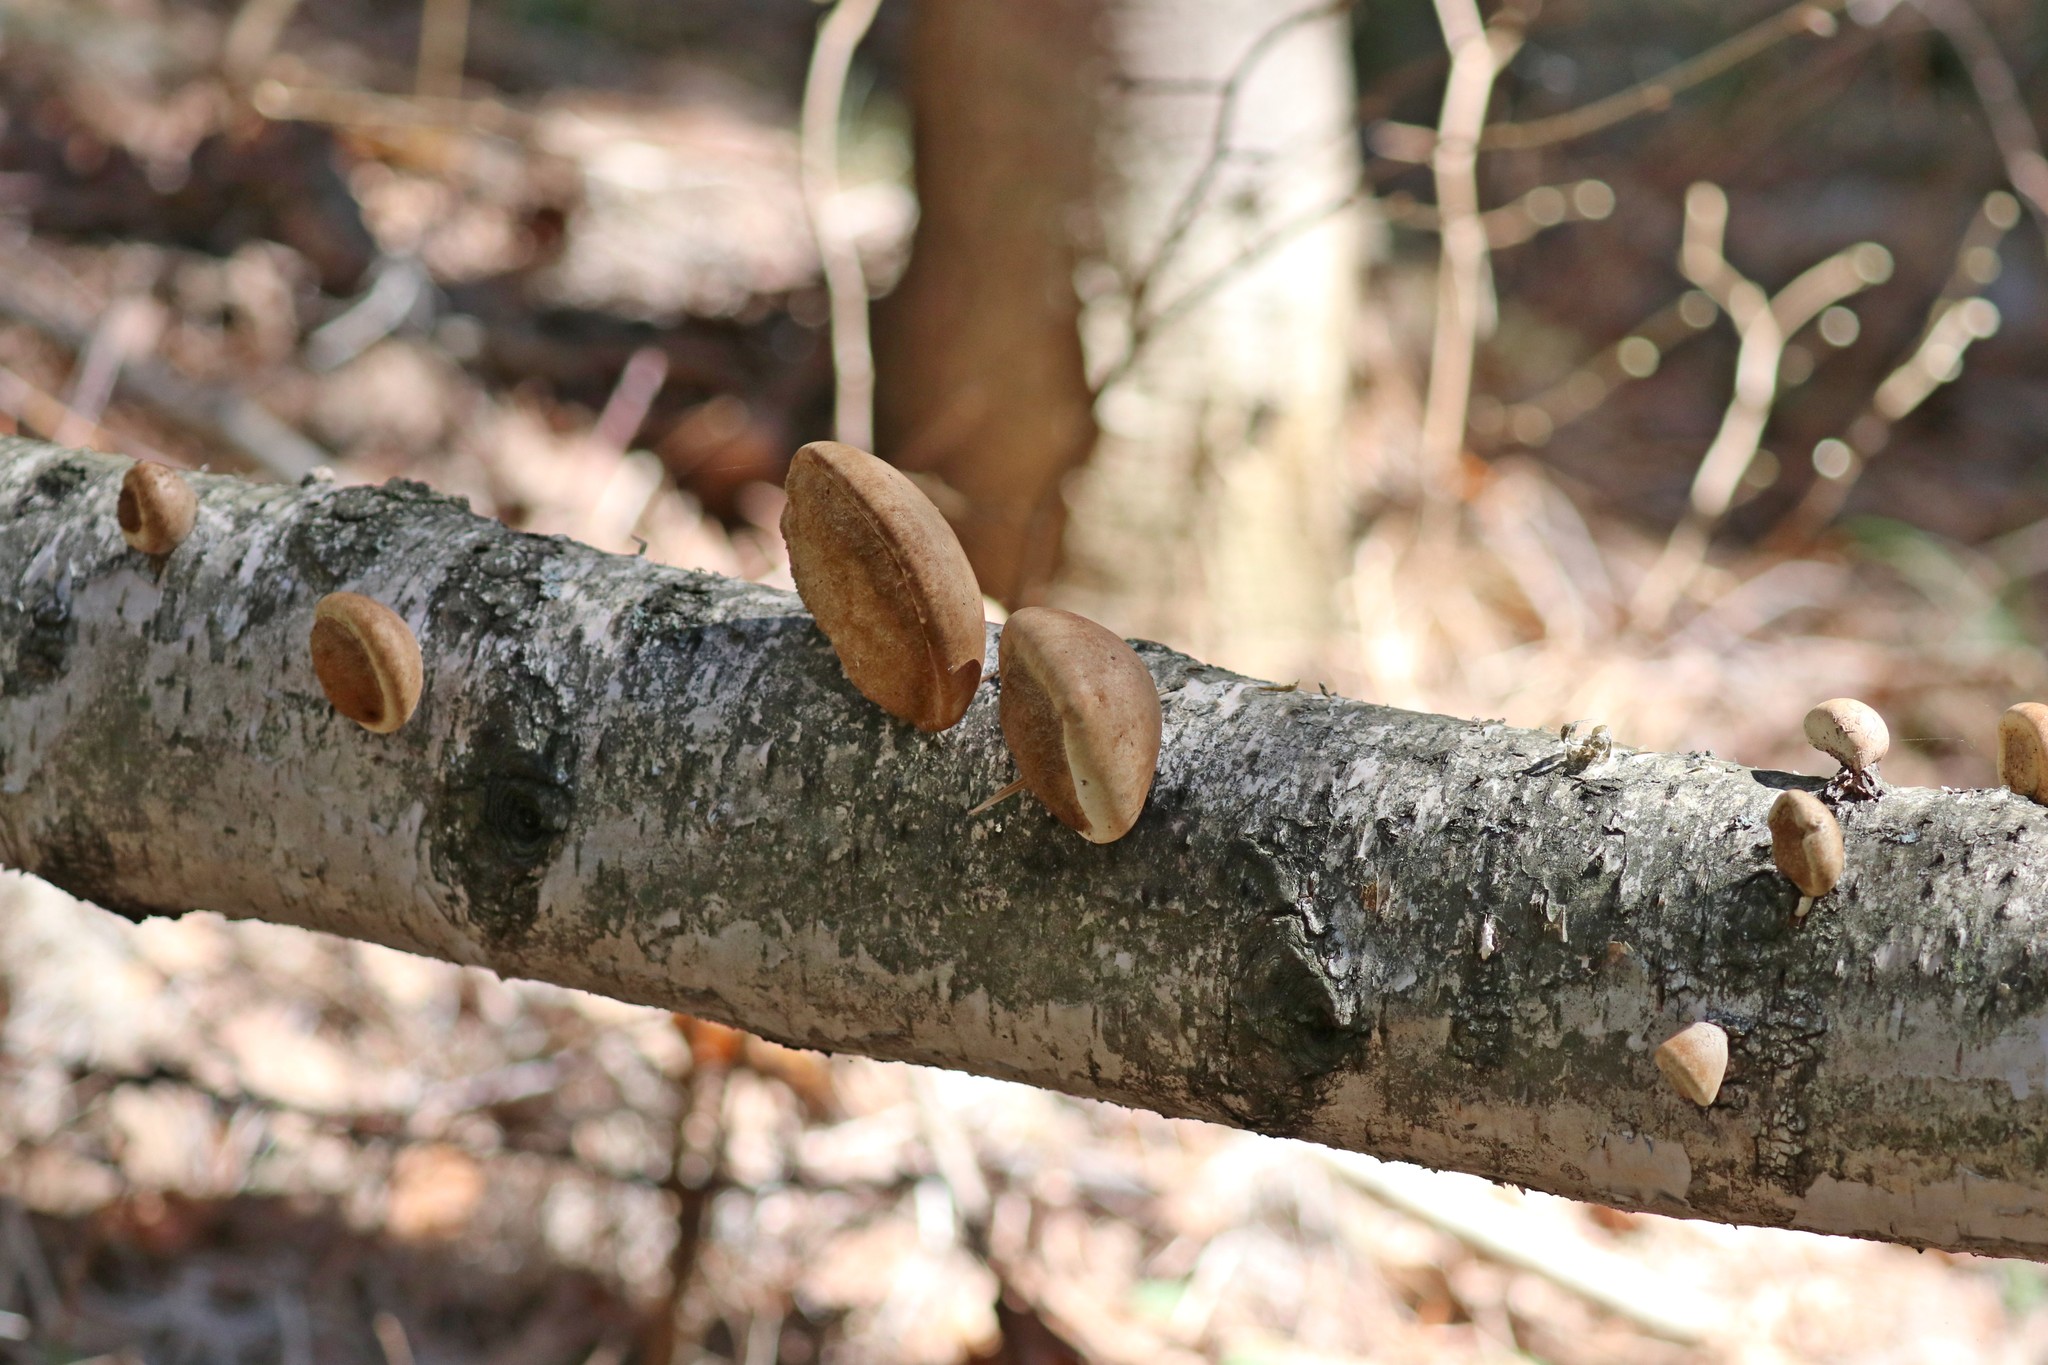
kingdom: Fungi
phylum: Basidiomycota
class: Agaricomycetes
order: Polyporales
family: Fomitopsidaceae
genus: Fomitopsis
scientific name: Fomitopsis betulina
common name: Birch polypore
